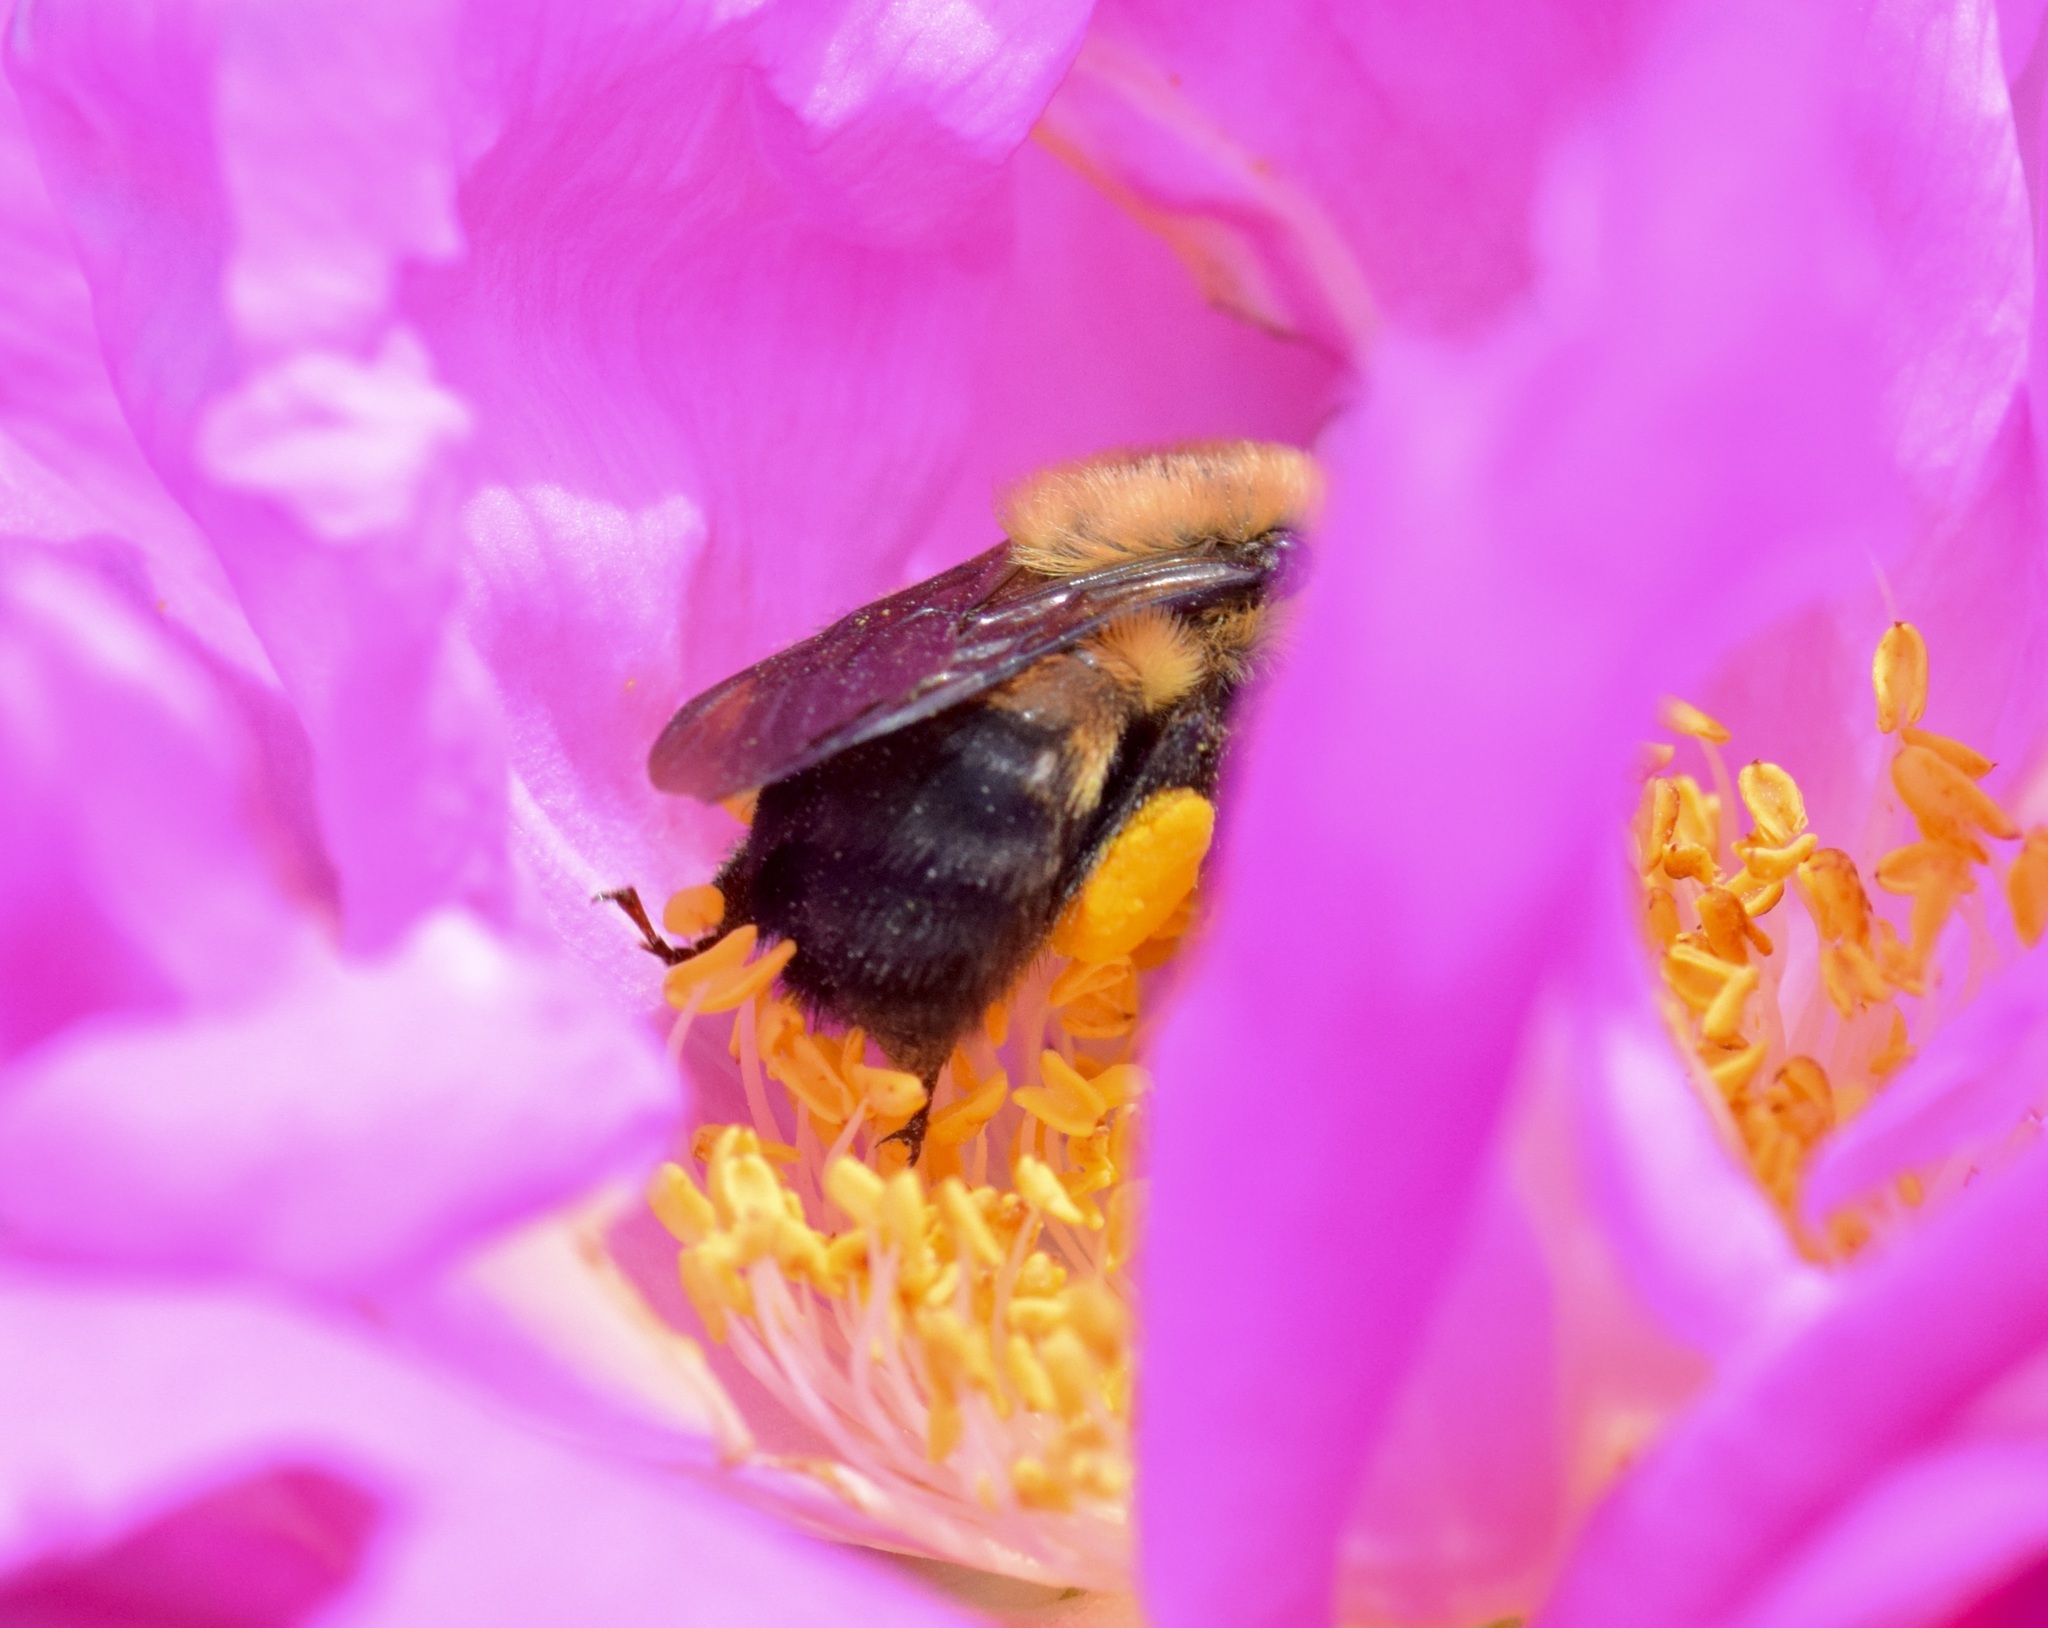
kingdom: Animalia
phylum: Arthropoda
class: Insecta
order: Hymenoptera
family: Apidae
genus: Bombus
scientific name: Bombus griseocollis
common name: Brown-belted bumble bee
